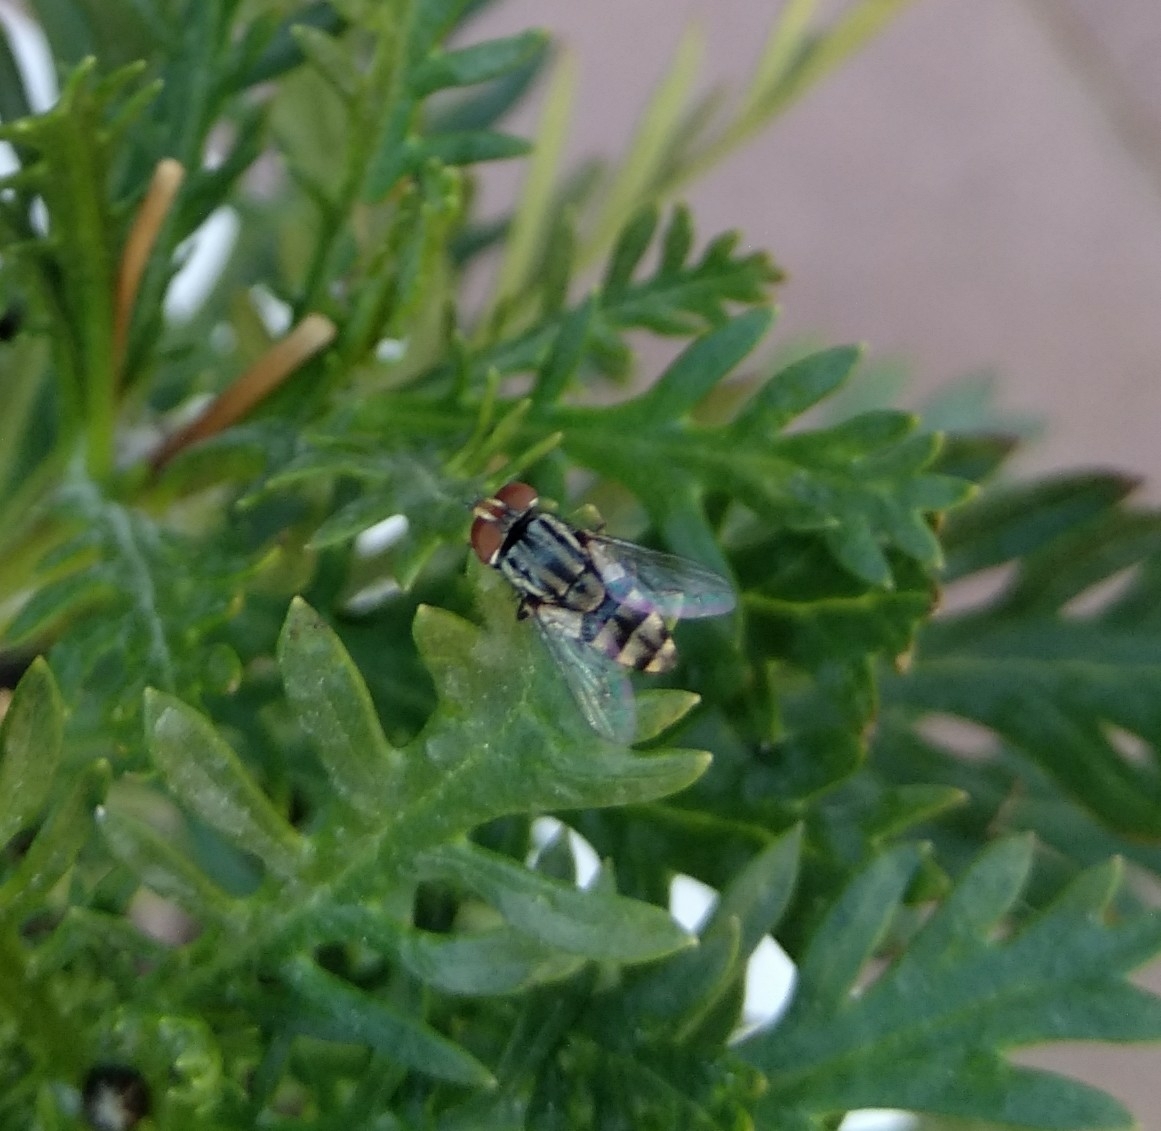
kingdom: Animalia
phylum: Arthropoda
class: Insecta
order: Diptera
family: Sarcophagidae
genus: Miltogramma
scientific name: Miltogramma taeniata
